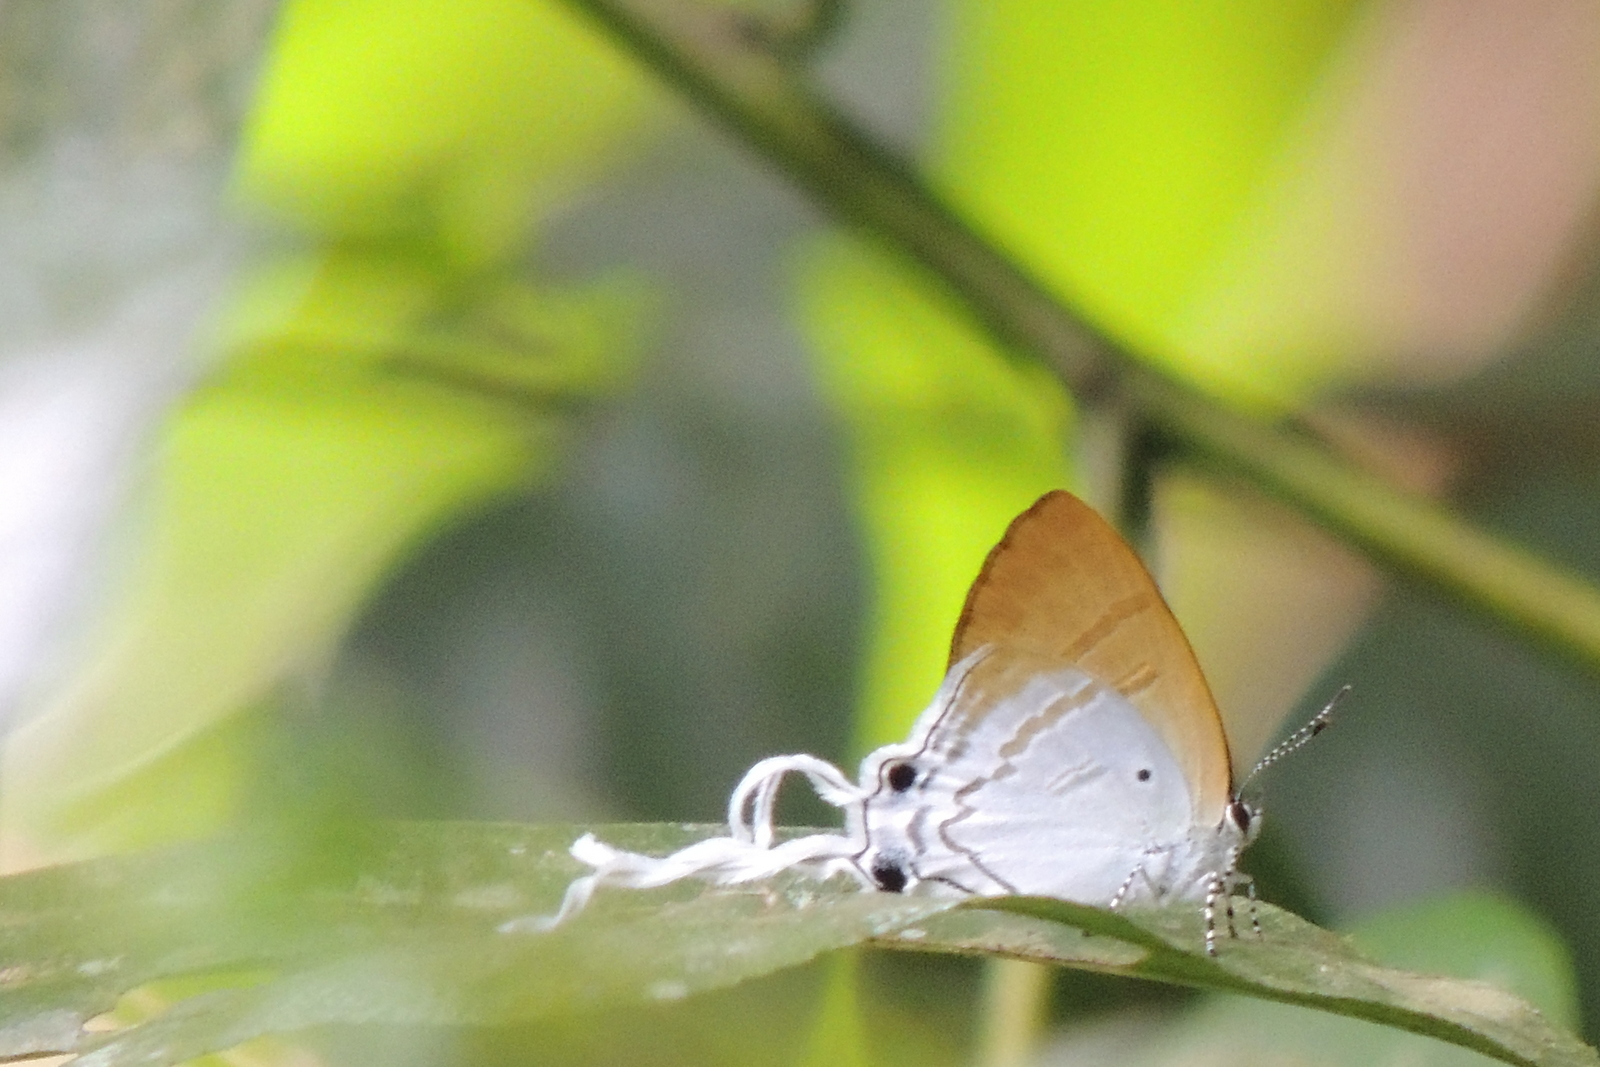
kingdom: Animalia
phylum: Arthropoda
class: Insecta
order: Lepidoptera
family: Lycaenidae
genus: Zeltus
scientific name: Zeltus amasa
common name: Fluffy tit
